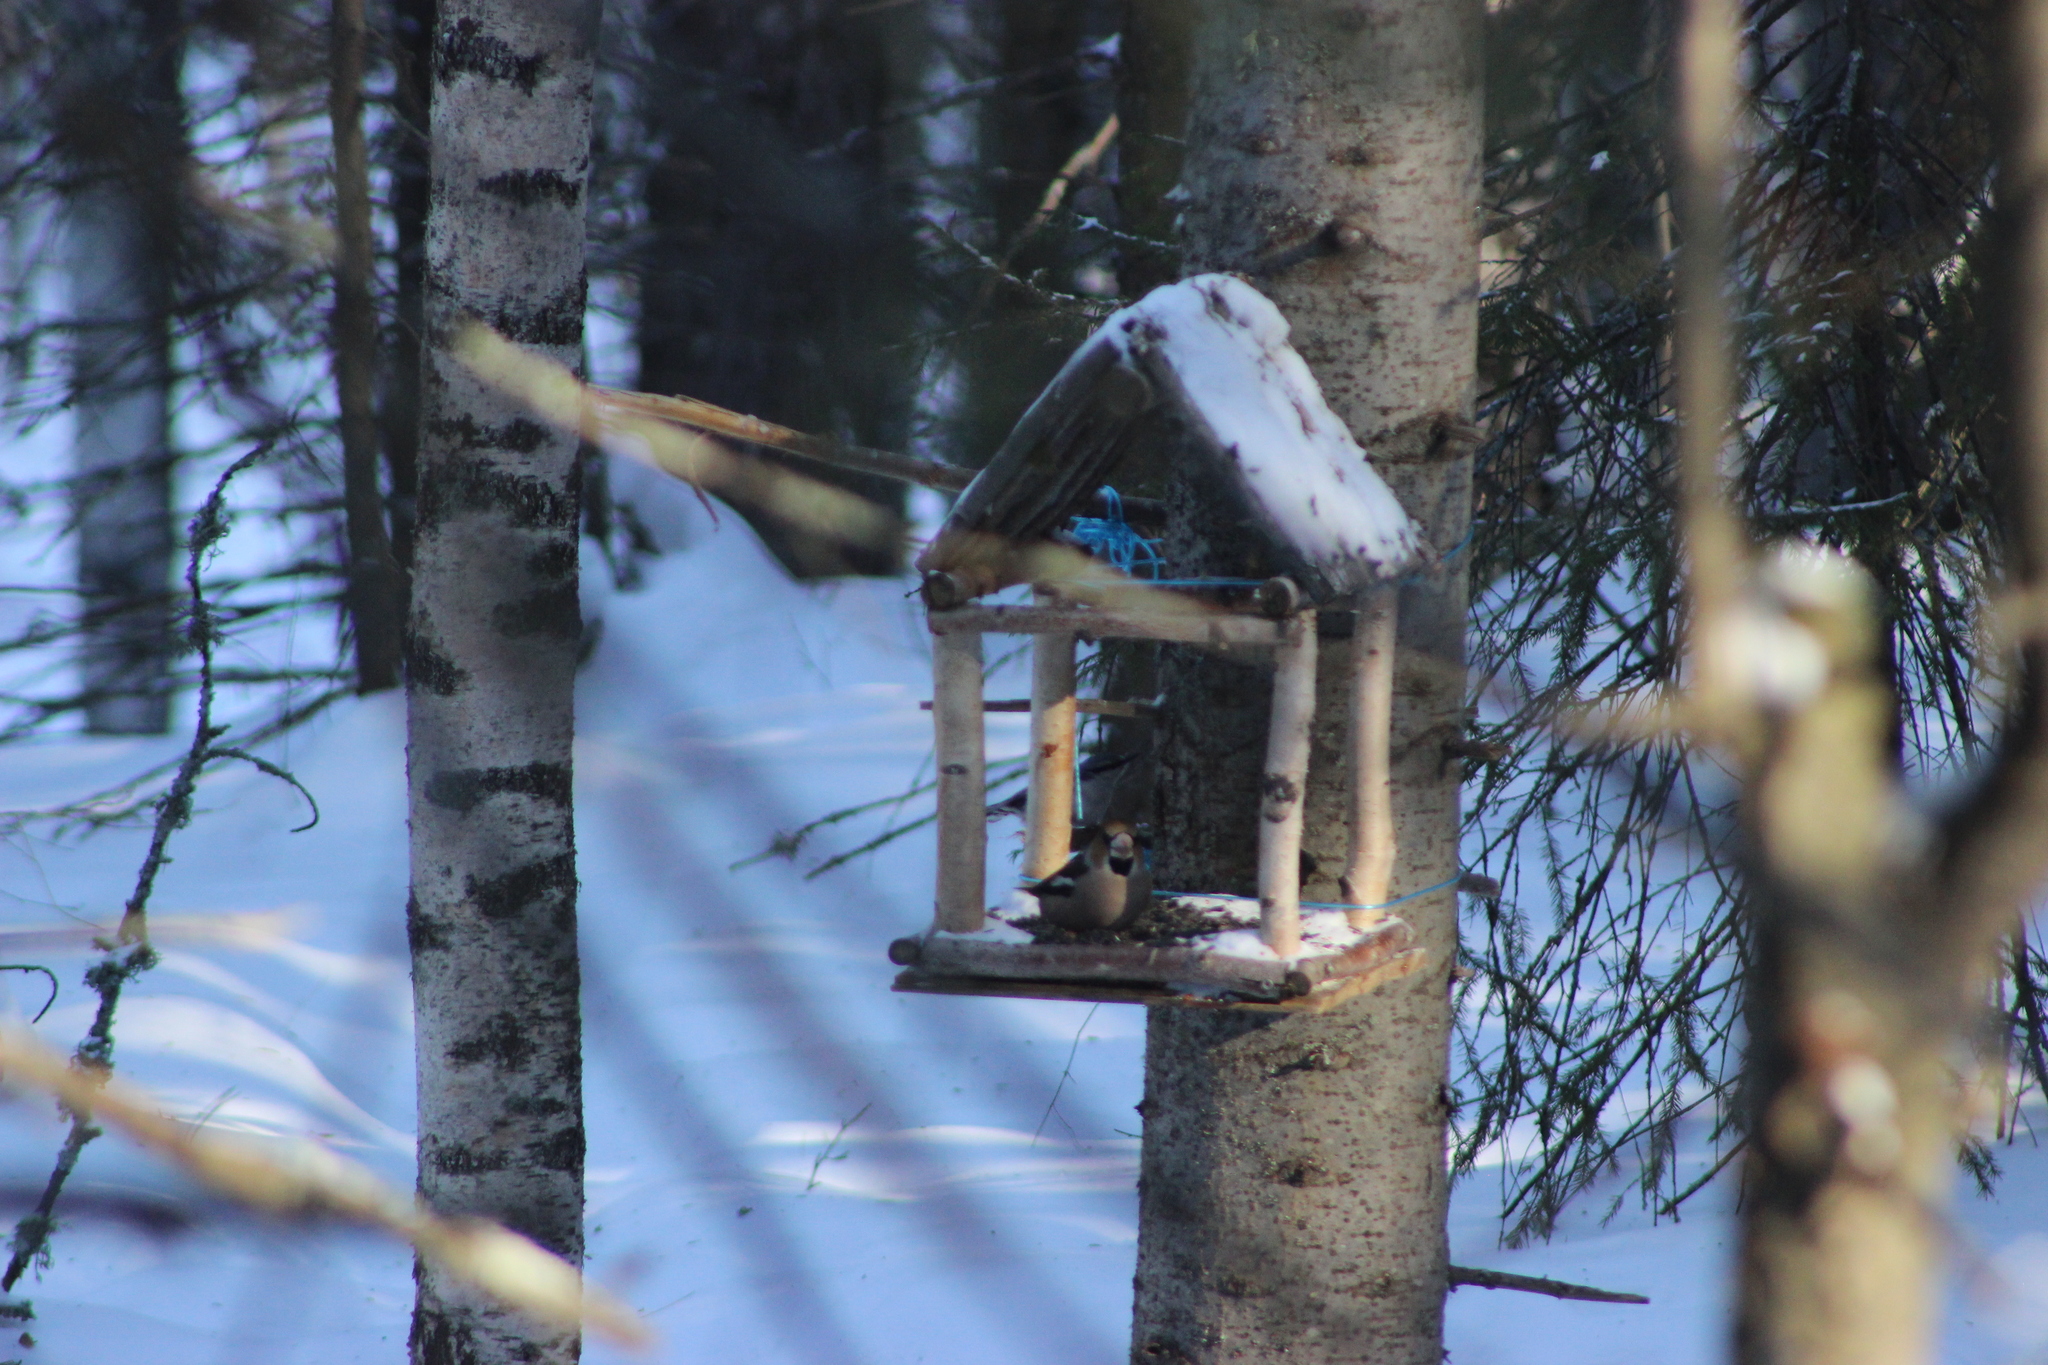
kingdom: Animalia
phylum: Chordata
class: Aves
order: Passeriformes
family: Fringillidae
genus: Coccothraustes
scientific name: Coccothraustes coccothraustes
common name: Hawfinch
